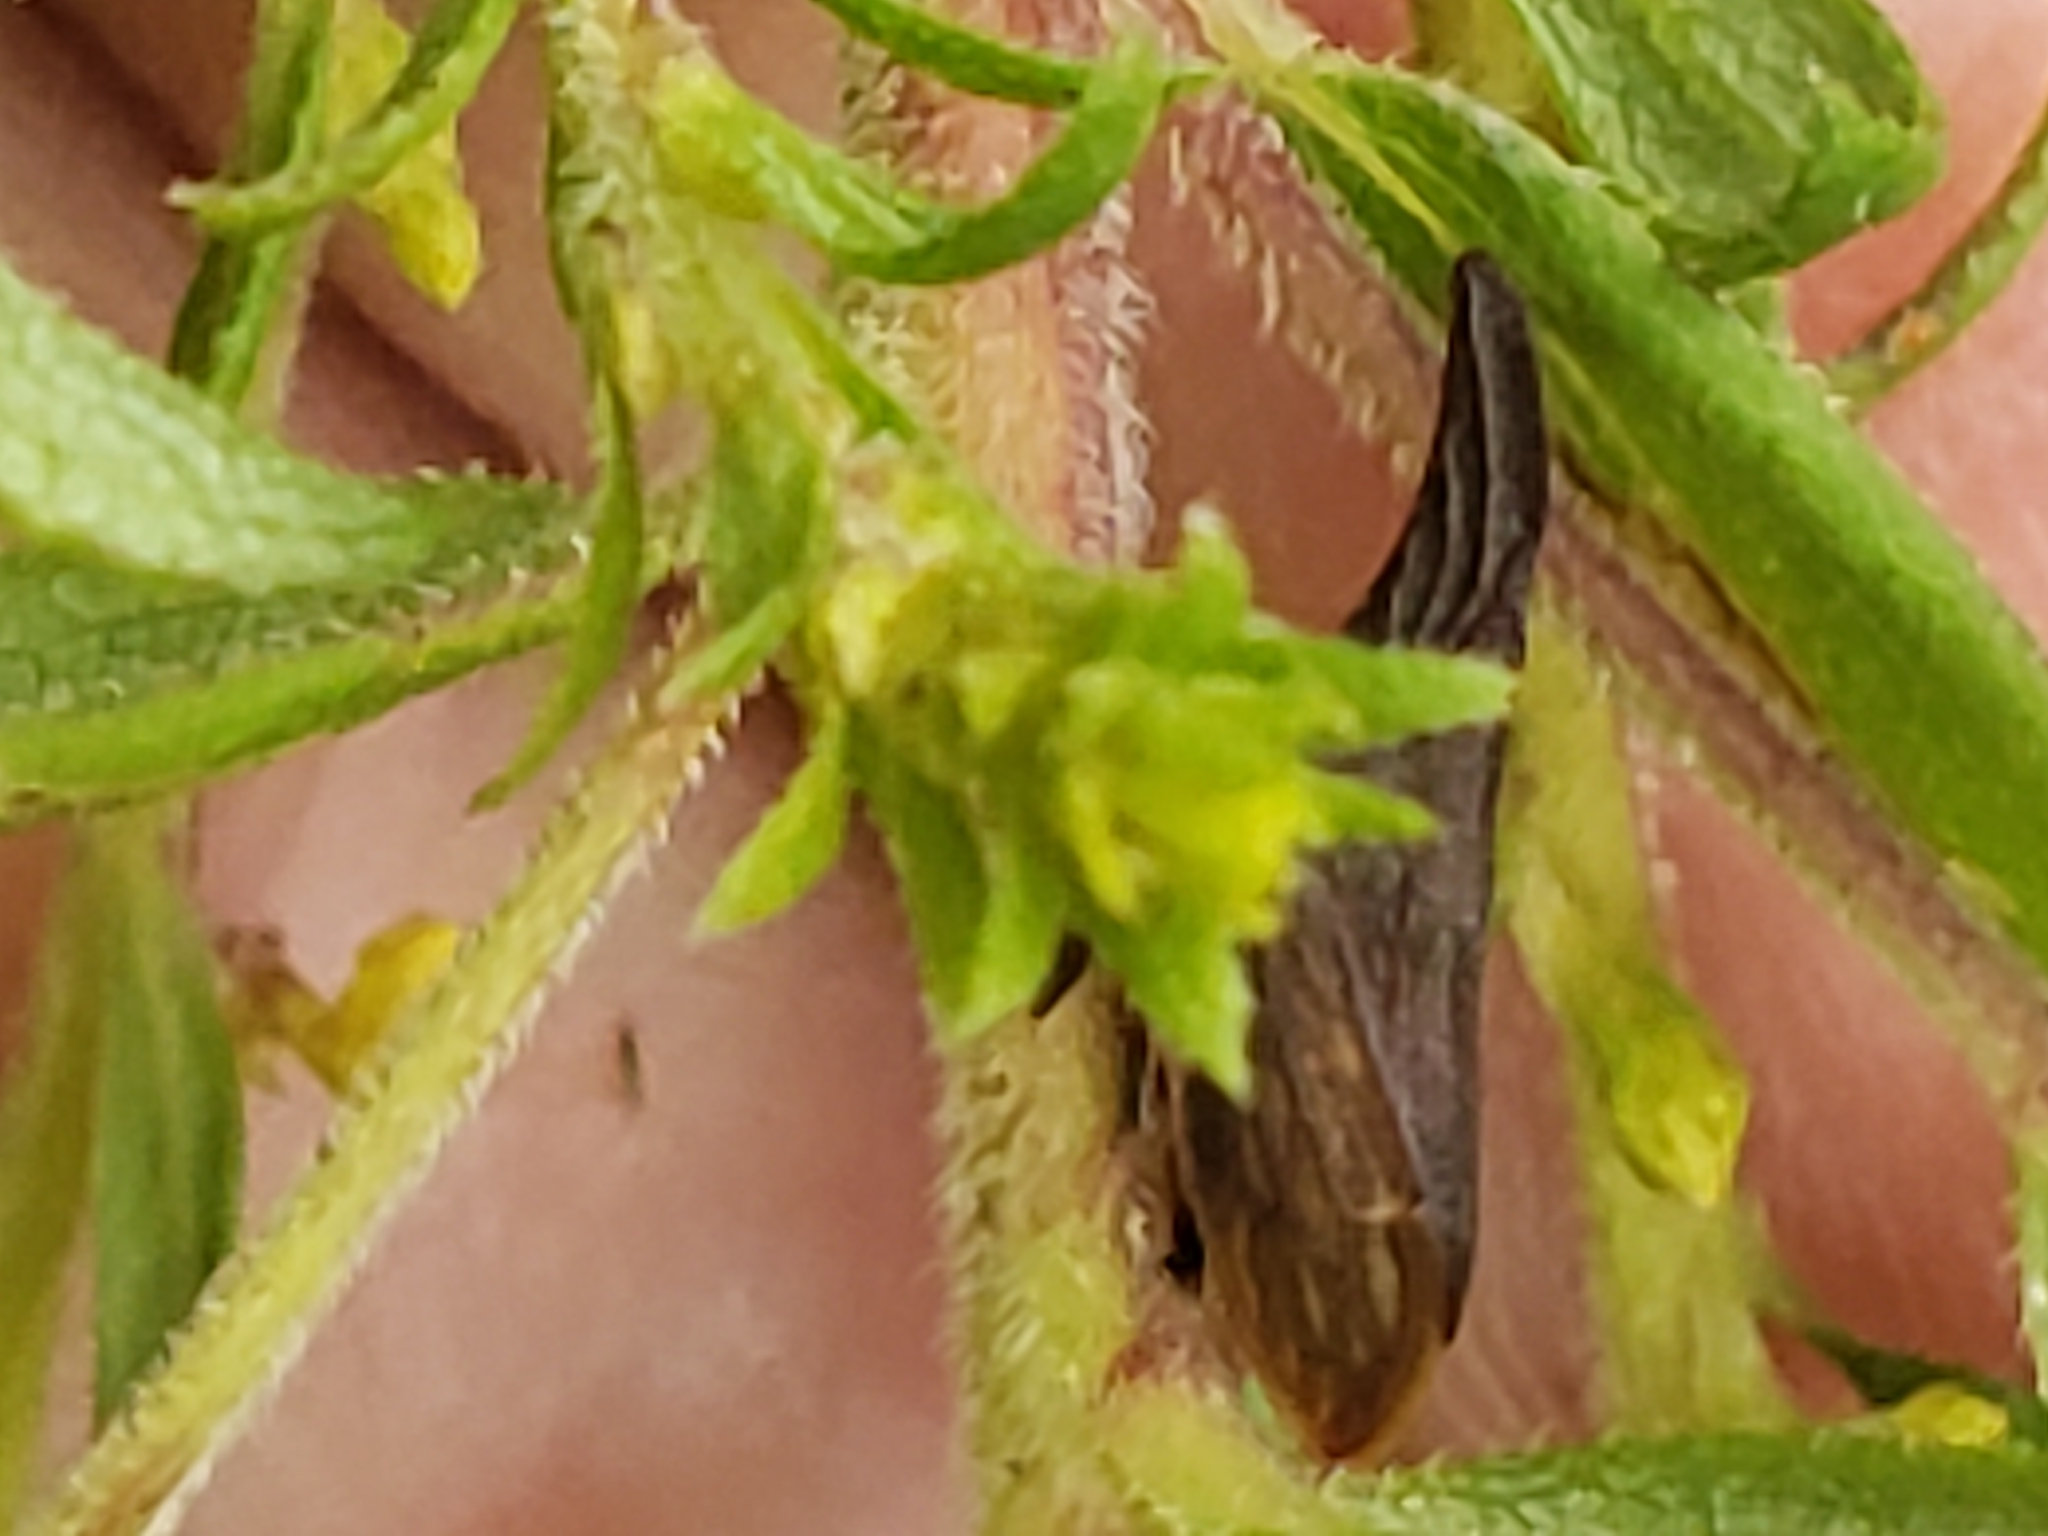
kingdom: Animalia
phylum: Arthropoda
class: Insecta
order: Hemiptera
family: Membracidae
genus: Enchenopa
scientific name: Enchenopa latipes
